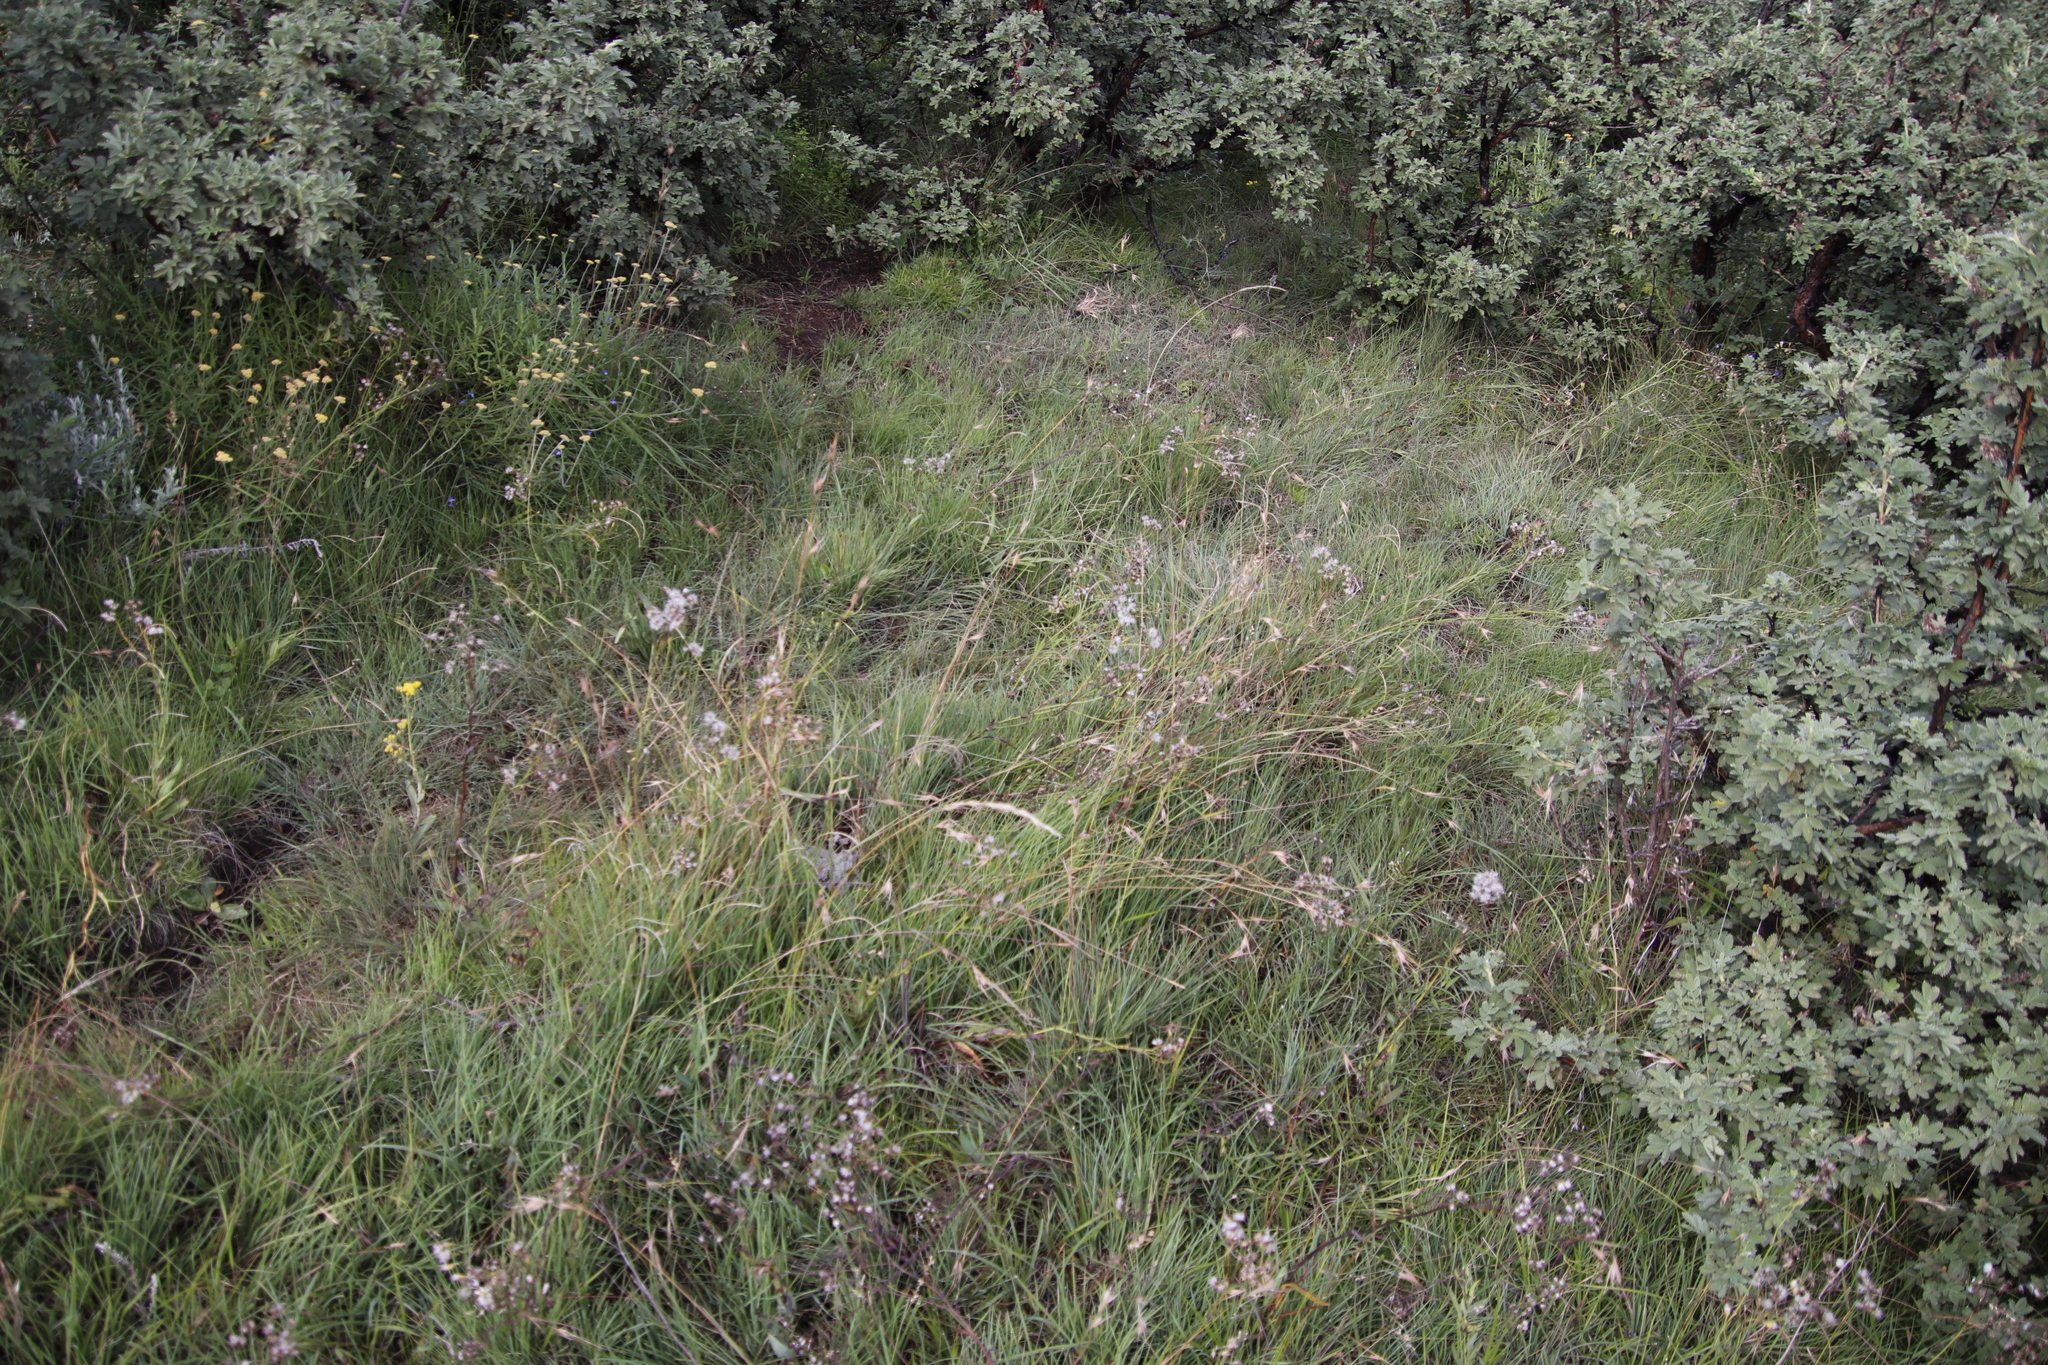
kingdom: Plantae
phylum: Tracheophyta
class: Liliopsida
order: Poales
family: Poaceae
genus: Themeda
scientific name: Themeda triandra
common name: Kangaroo grass
